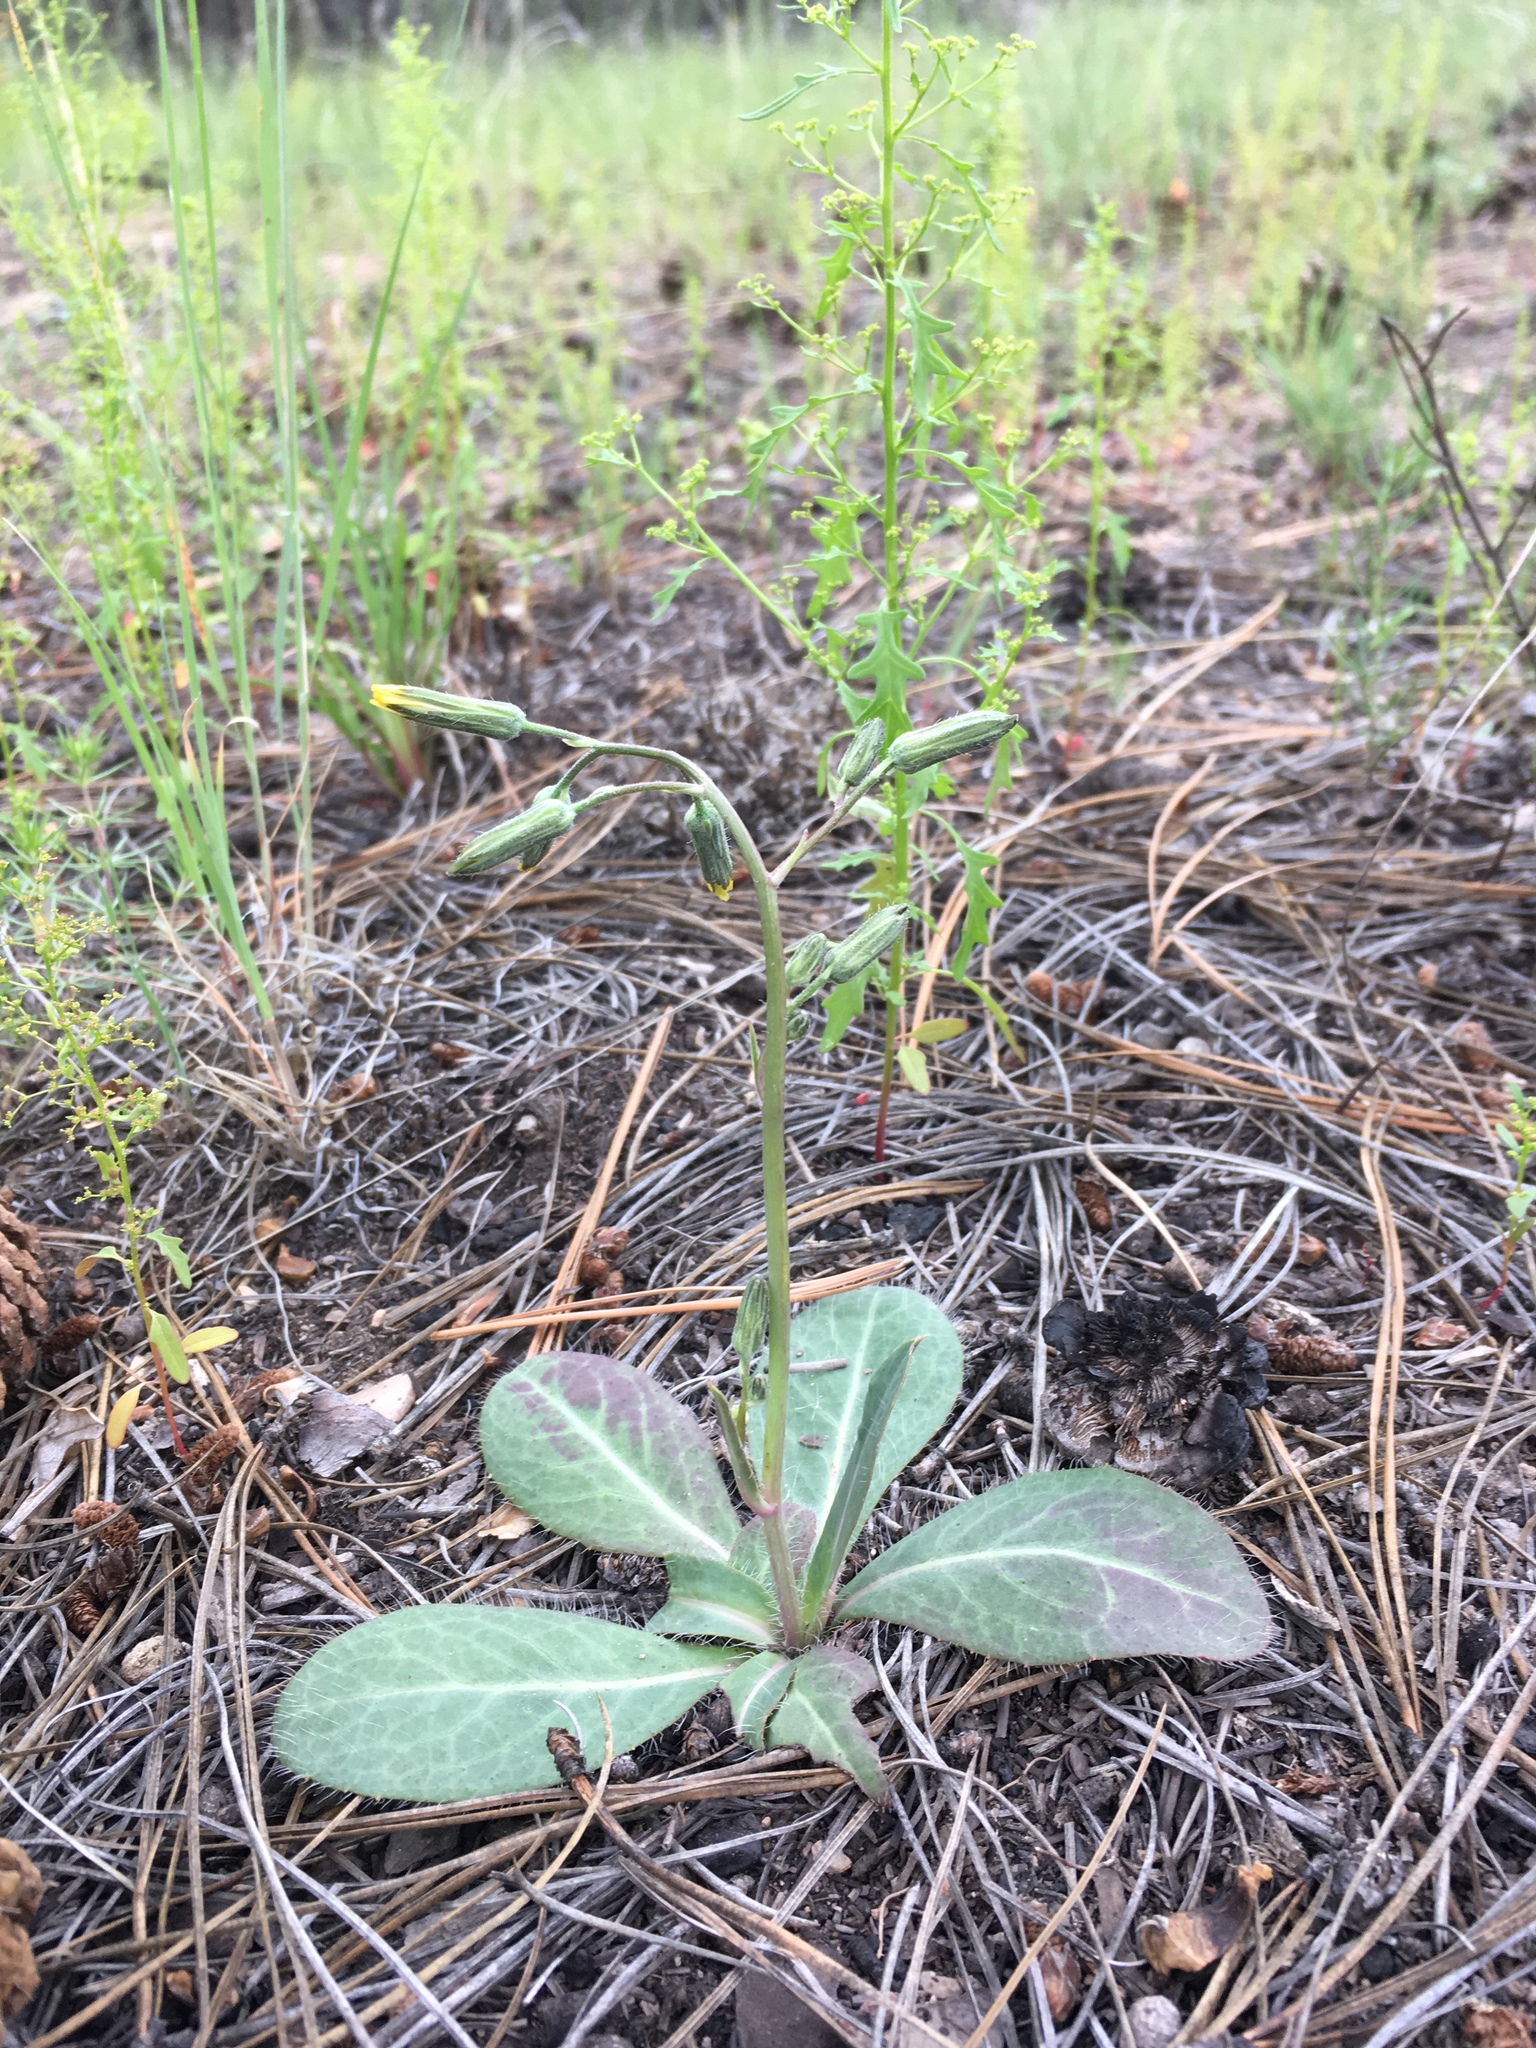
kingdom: Plantae
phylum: Tracheophyta
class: Magnoliopsida
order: Asterales
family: Asteraceae
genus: Hieracium
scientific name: Hieracium fendleri
